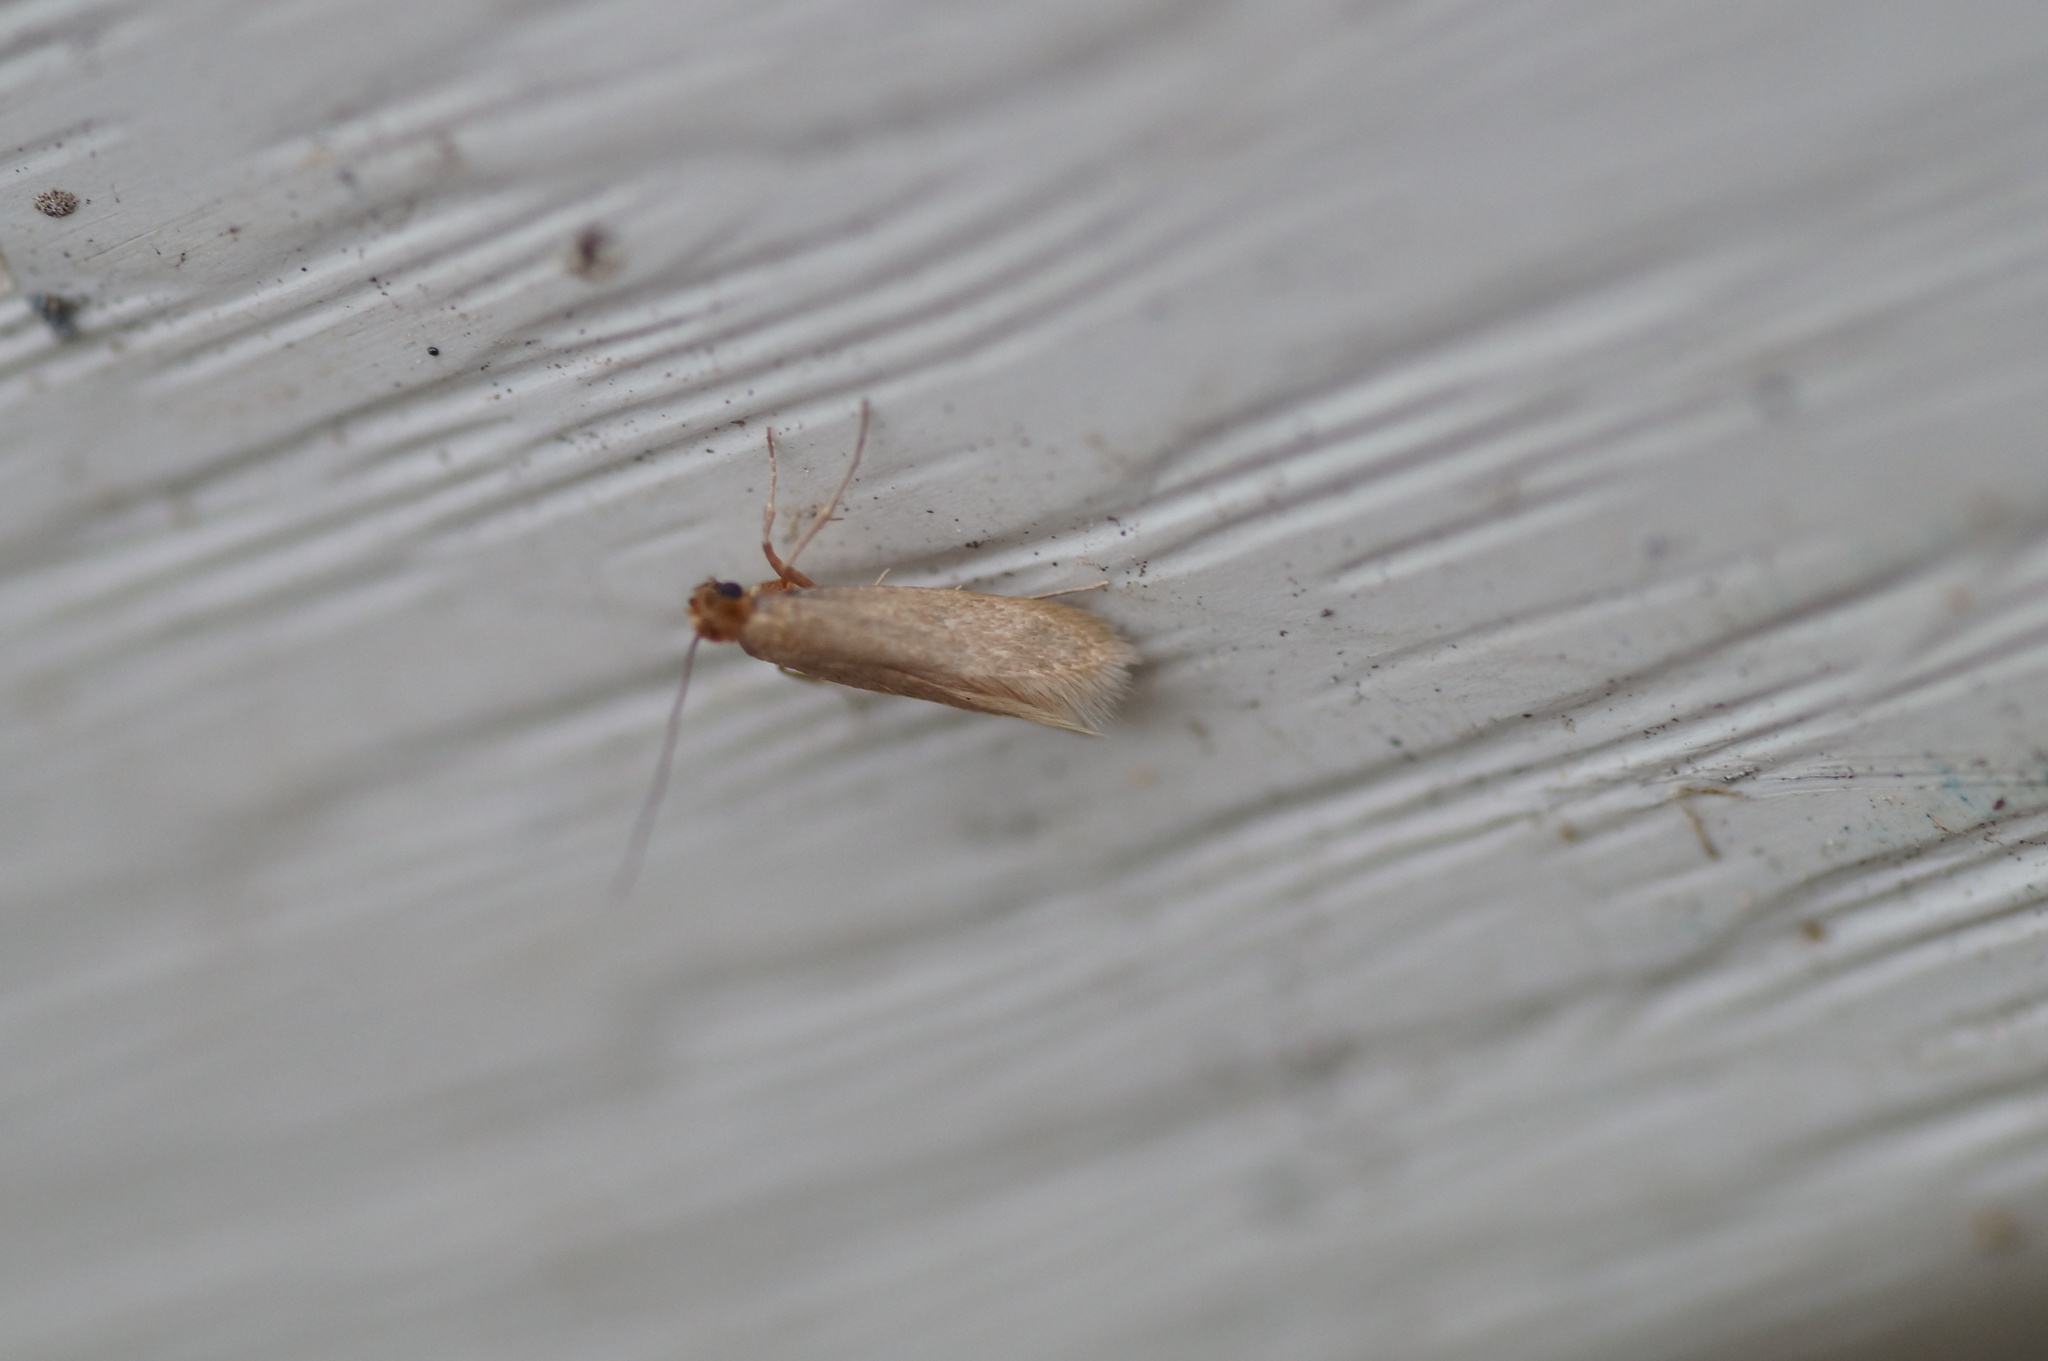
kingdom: Animalia
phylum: Arthropoda
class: Insecta
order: Lepidoptera
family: Tineidae
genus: Tineola
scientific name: Tineola bisselliella
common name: Webbing clothes moth
